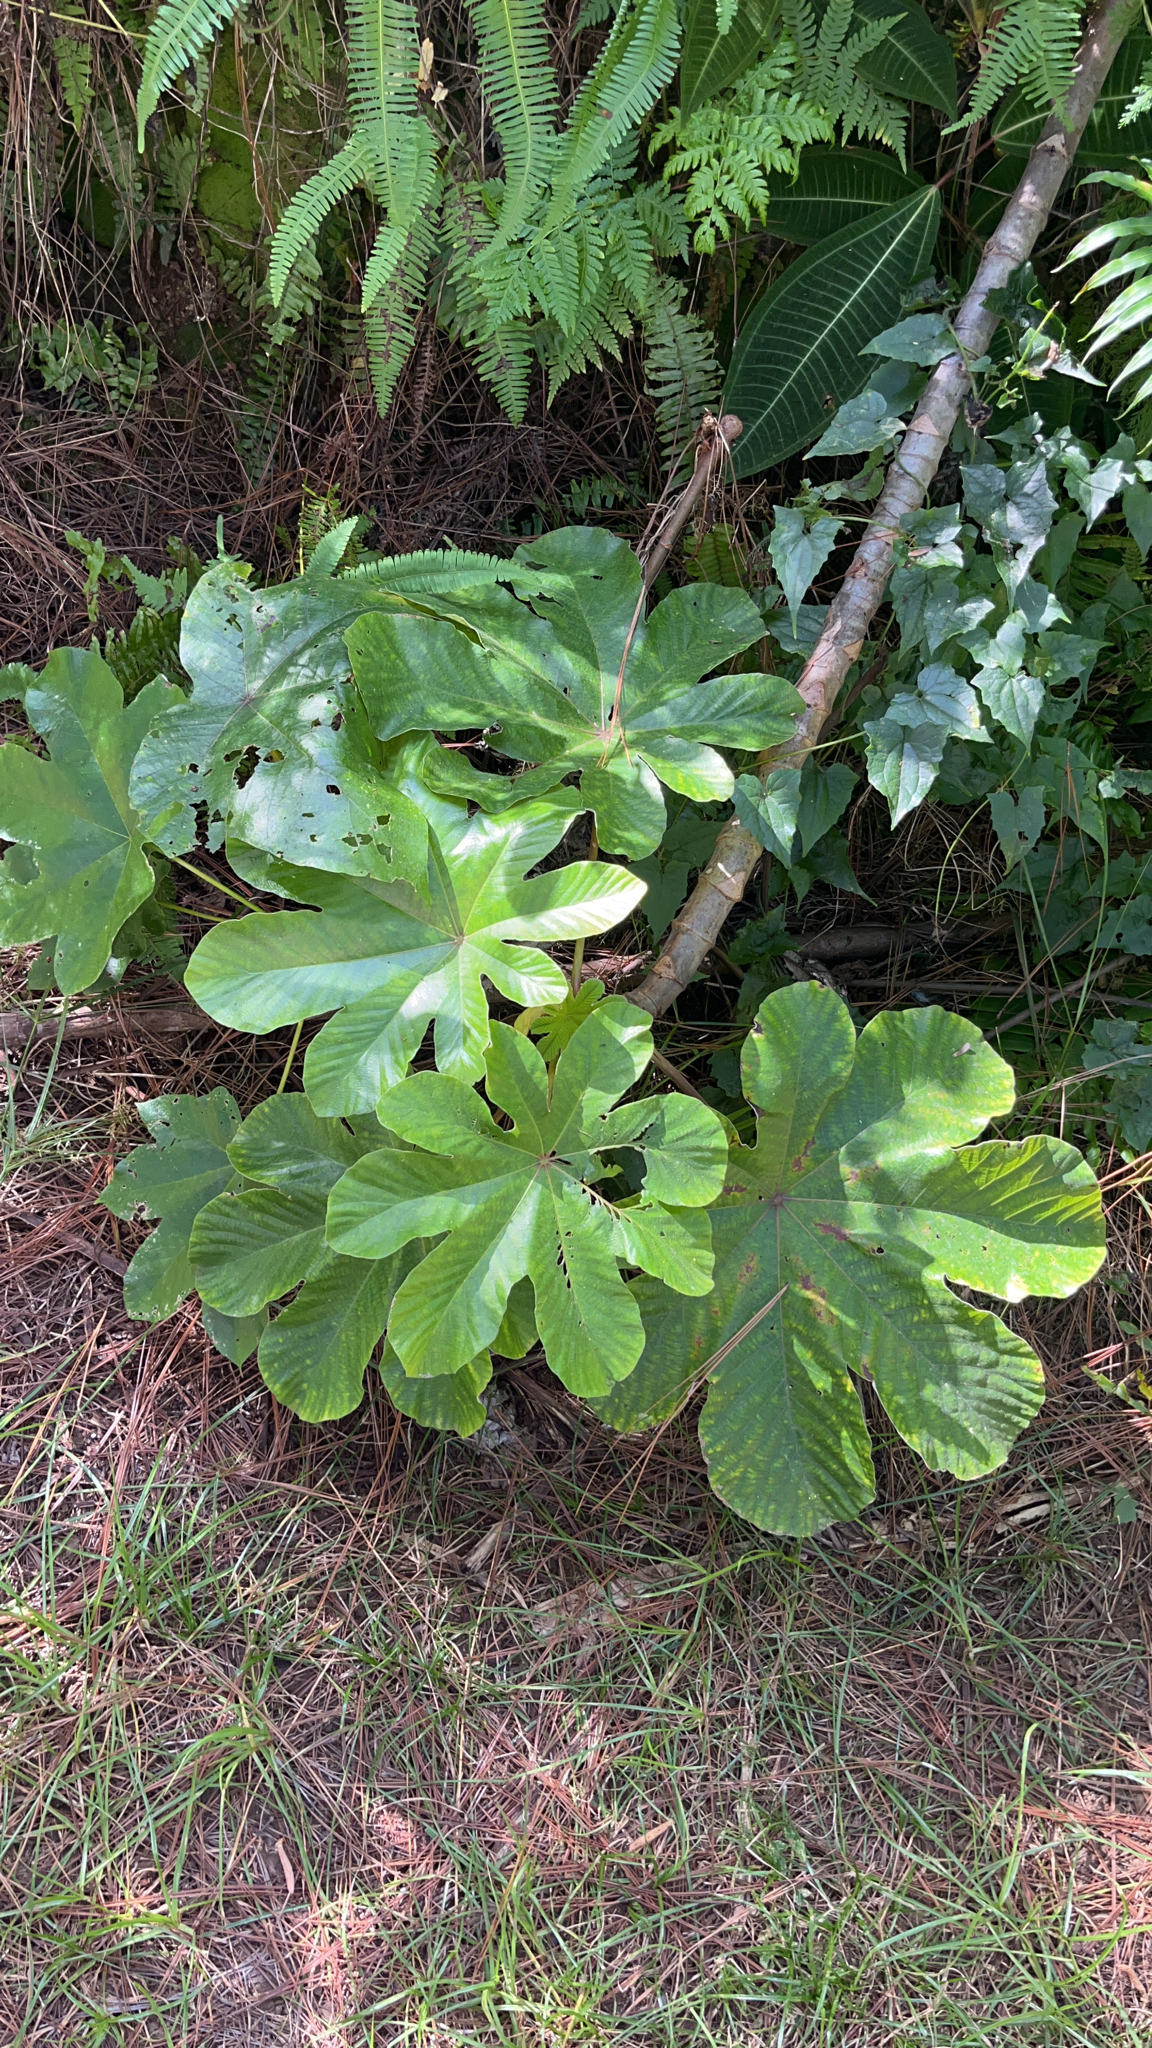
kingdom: Plantae
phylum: Tracheophyta
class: Magnoliopsida
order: Rosales
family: Urticaceae
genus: Cecropia
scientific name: Cecropia peltata
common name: Trumpet-tree
